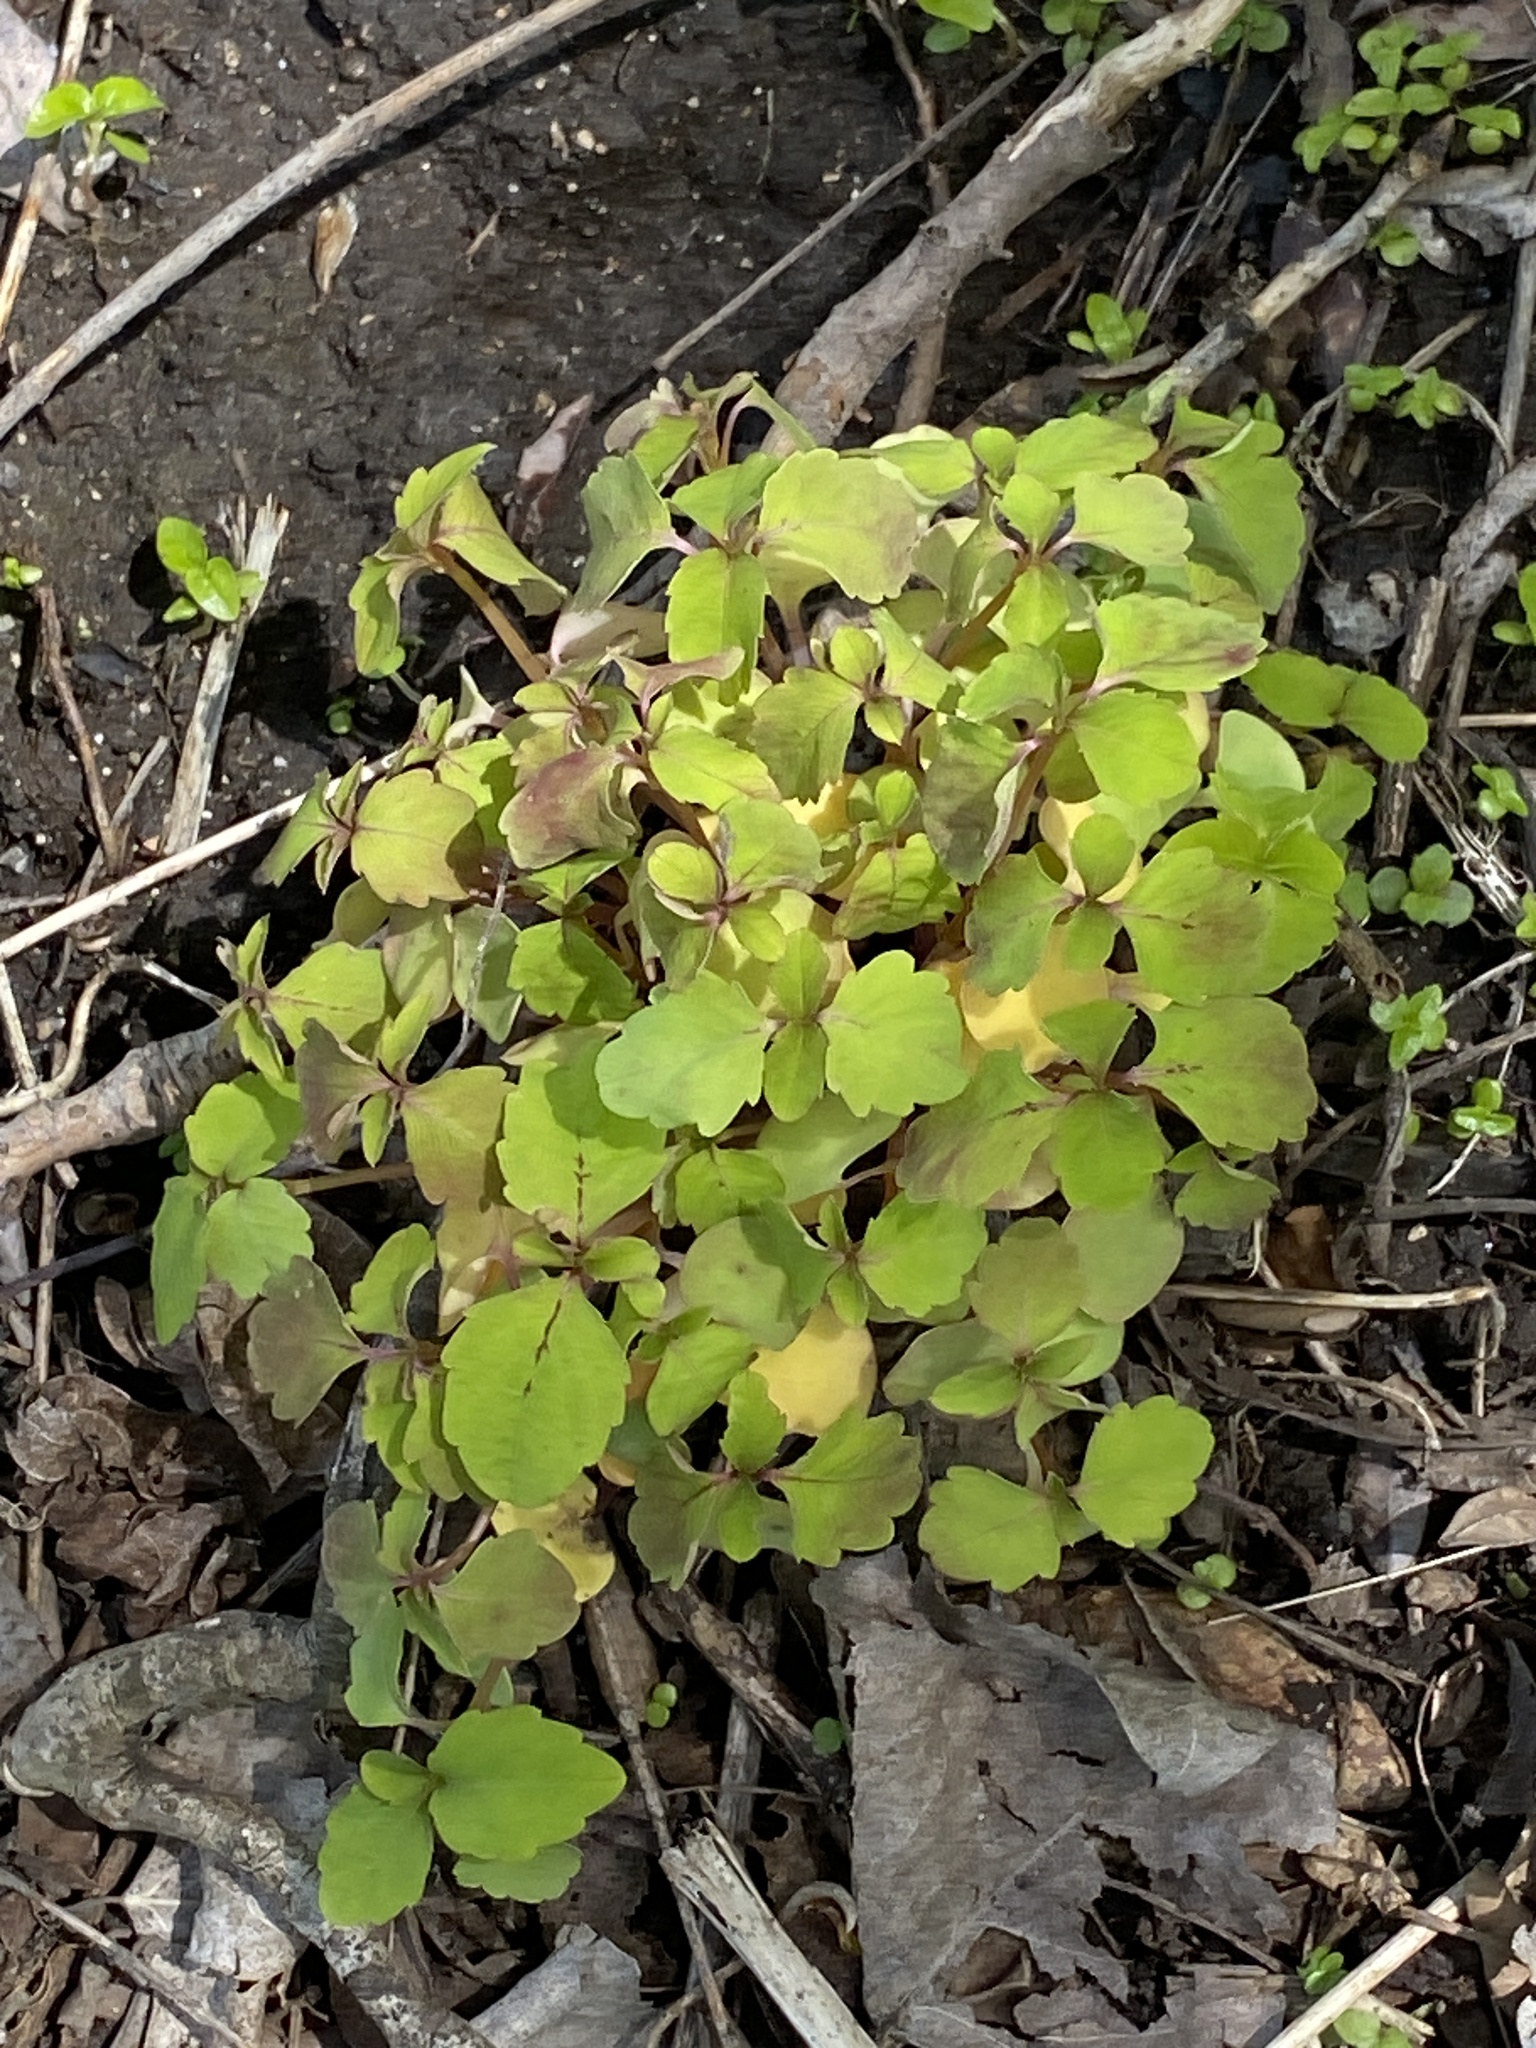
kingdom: Plantae
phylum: Tracheophyta
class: Magnoliopsida
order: Ericales
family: Balsaminaceae
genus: Impatiens
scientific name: Impatiens capensis
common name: Orange balsam
